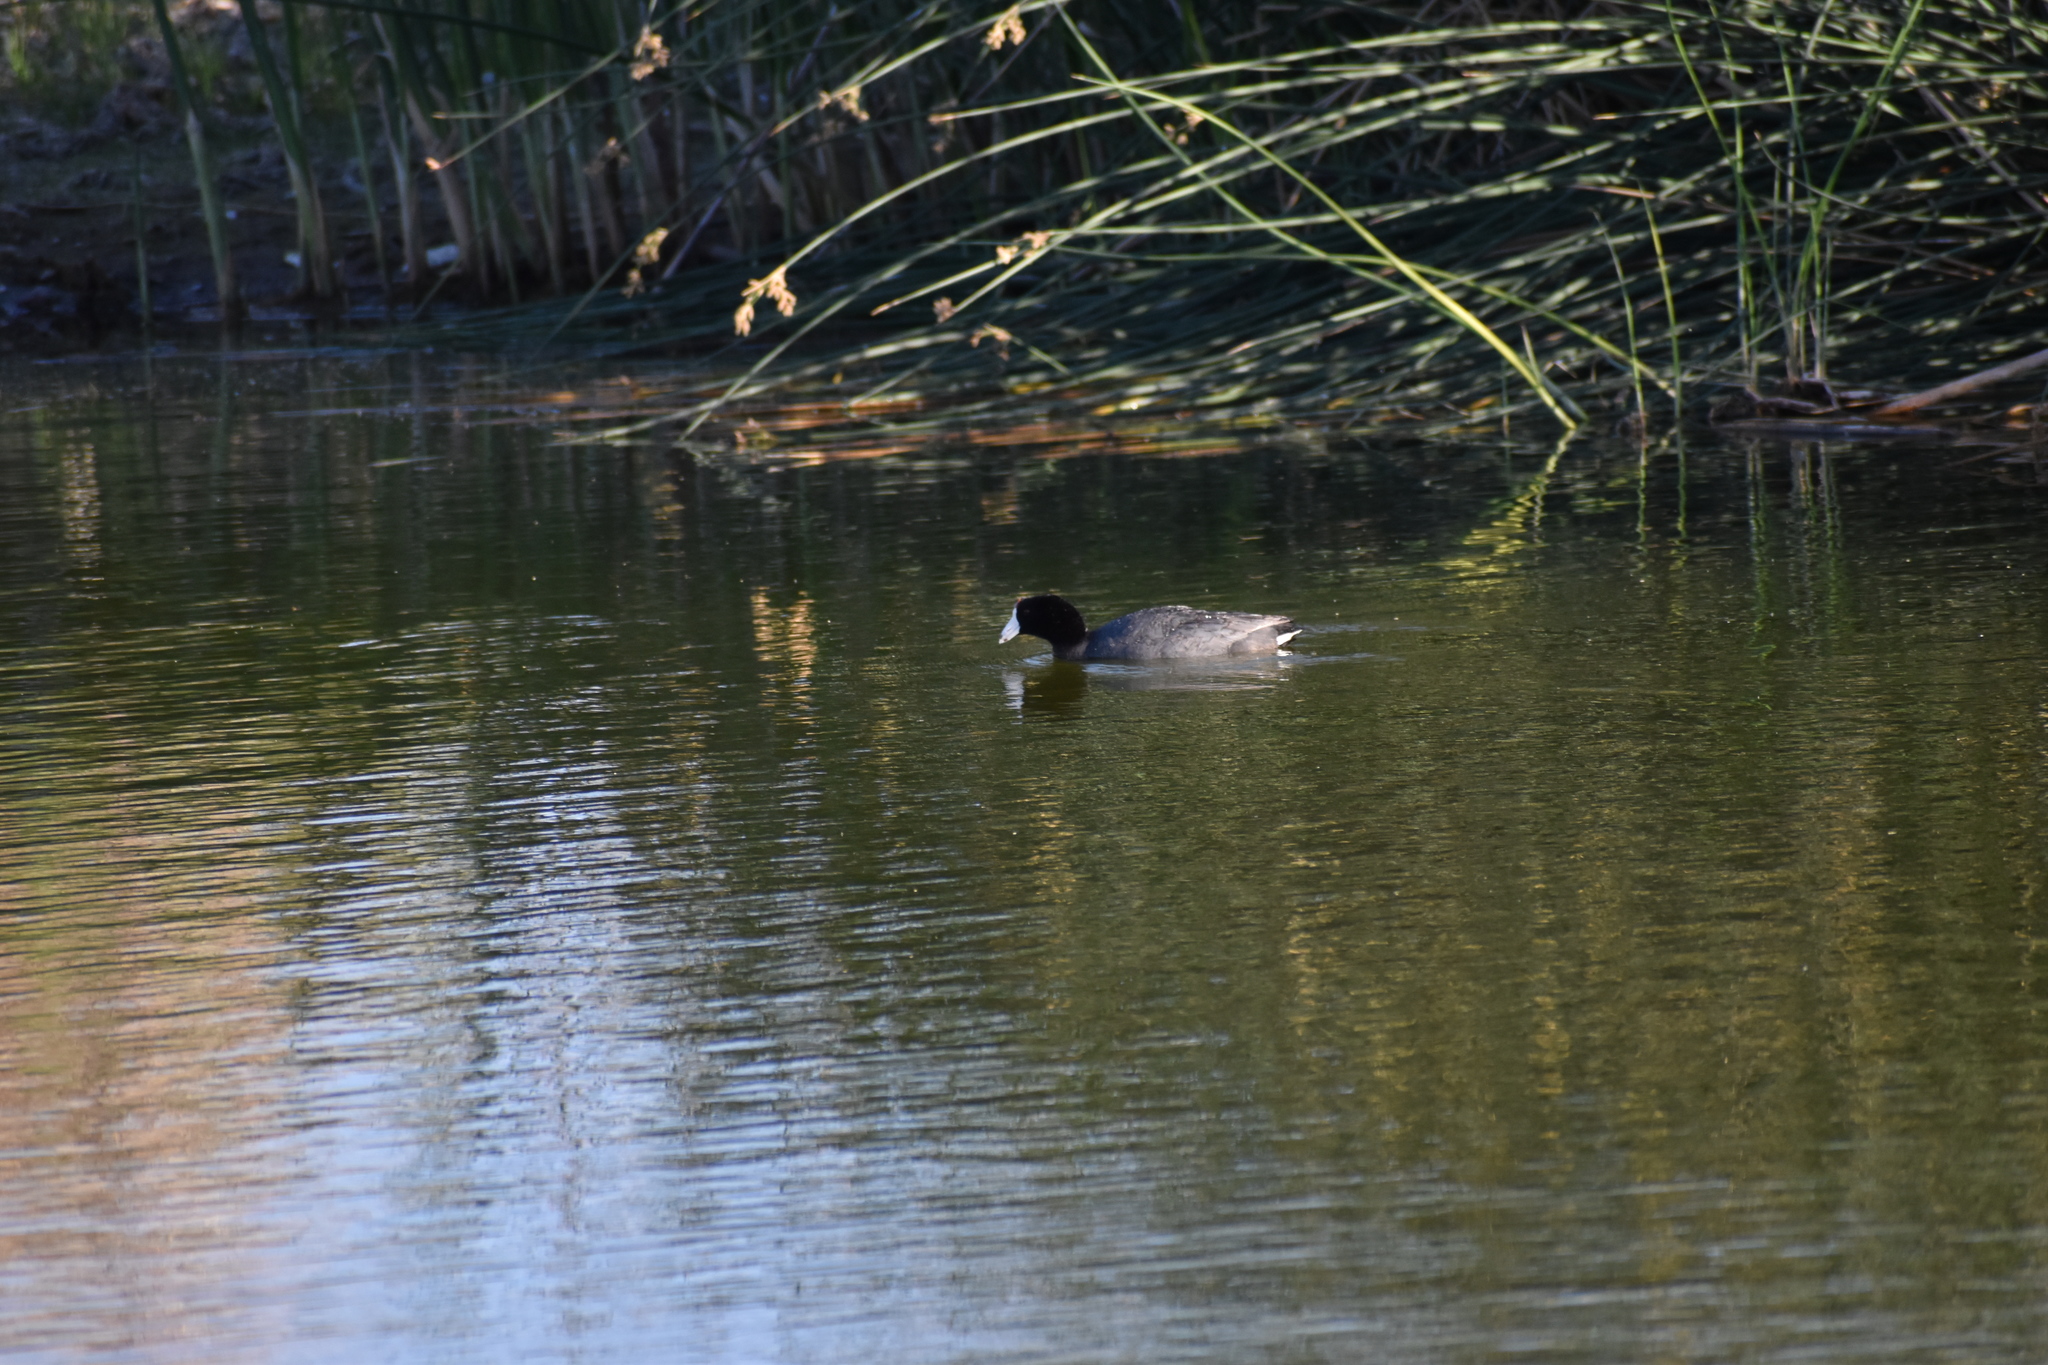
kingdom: Animalia
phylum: Chordata
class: Aves
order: Gruiformes
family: Rallidae
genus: Fulica
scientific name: Fulica americana
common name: American coot
